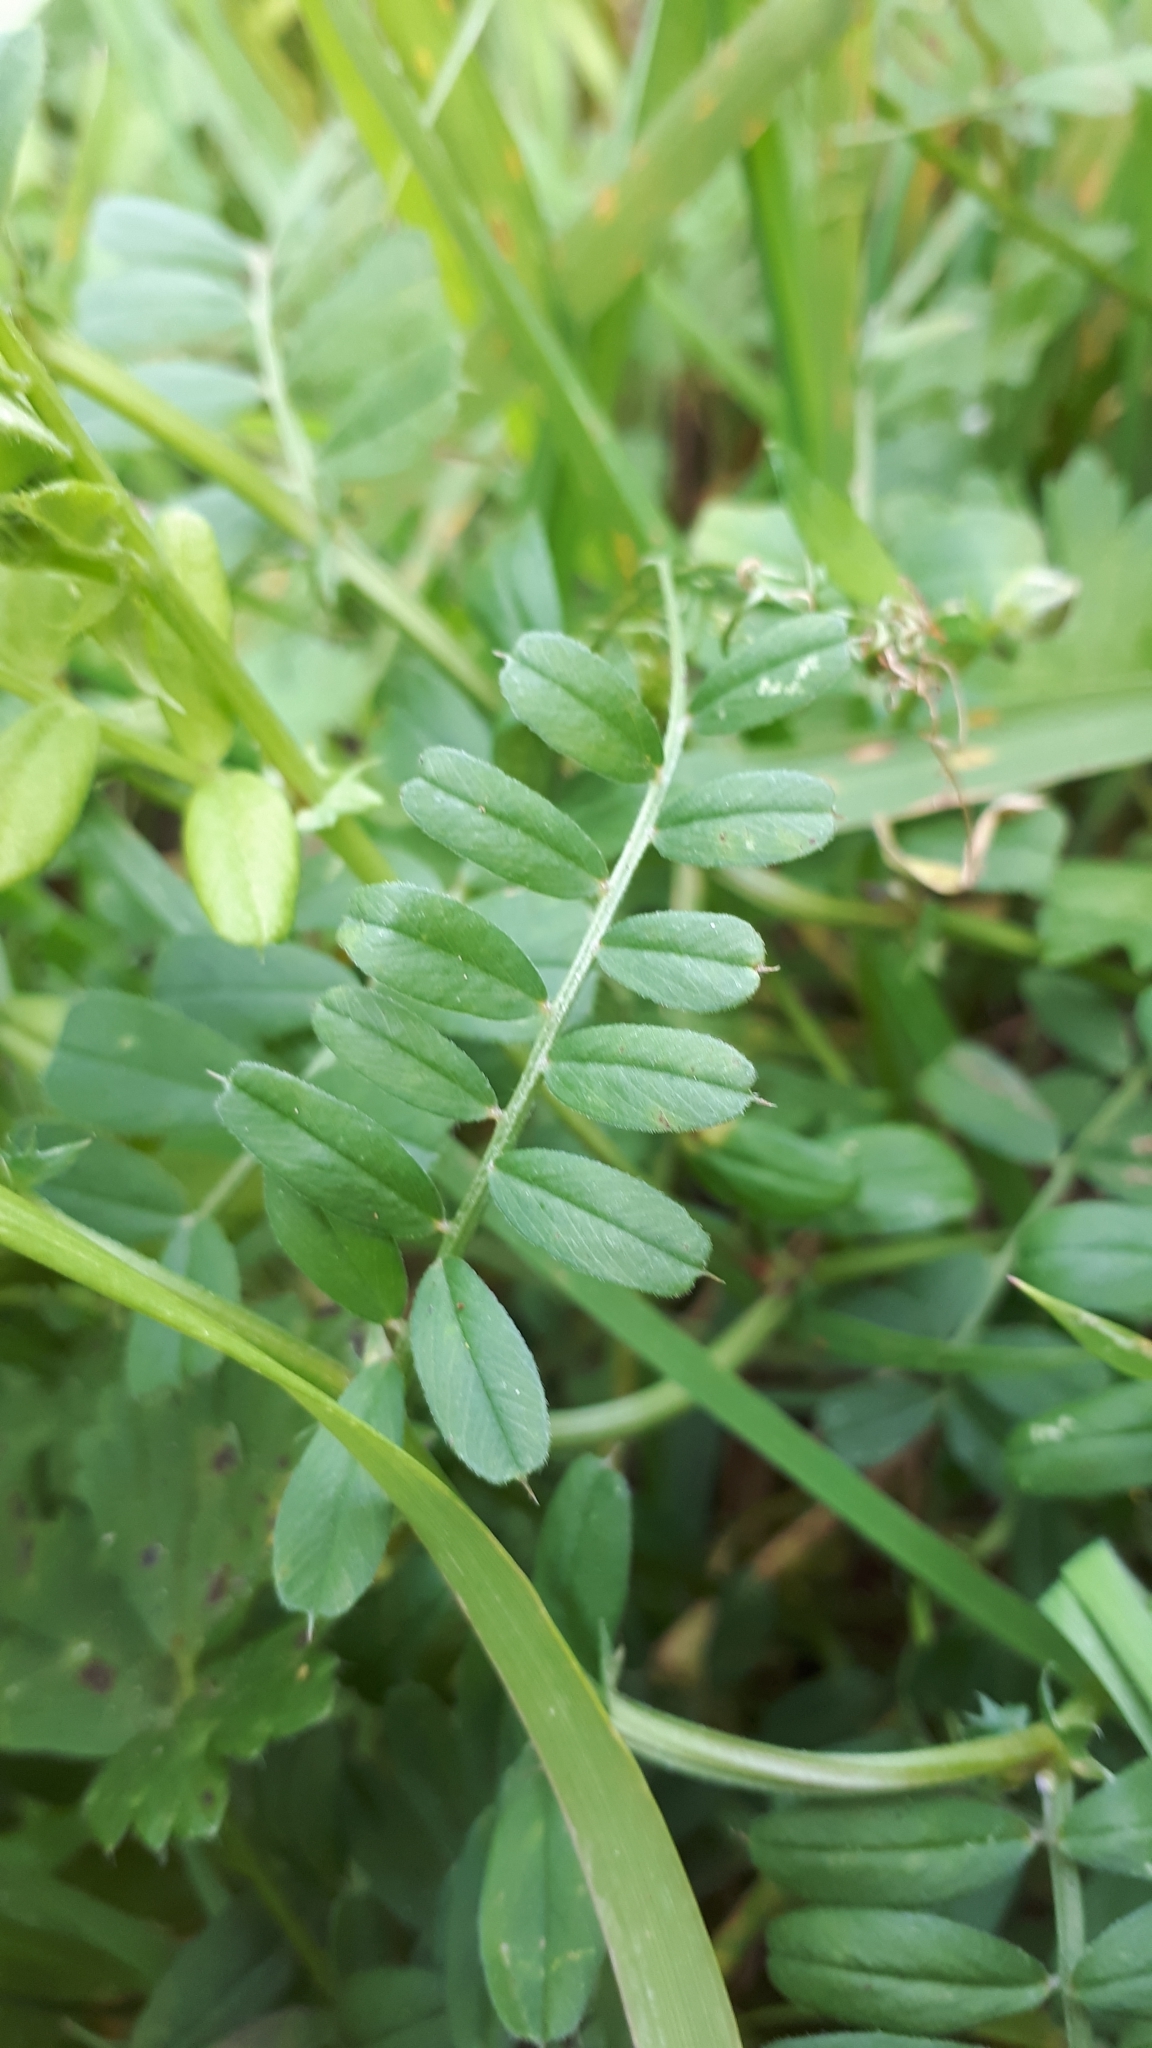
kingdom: Plantae
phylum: Tracheophyta
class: Magnoliopsida
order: Fabales
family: Fabaceae
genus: Vicia
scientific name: Vicia sativa
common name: Garden vetch
